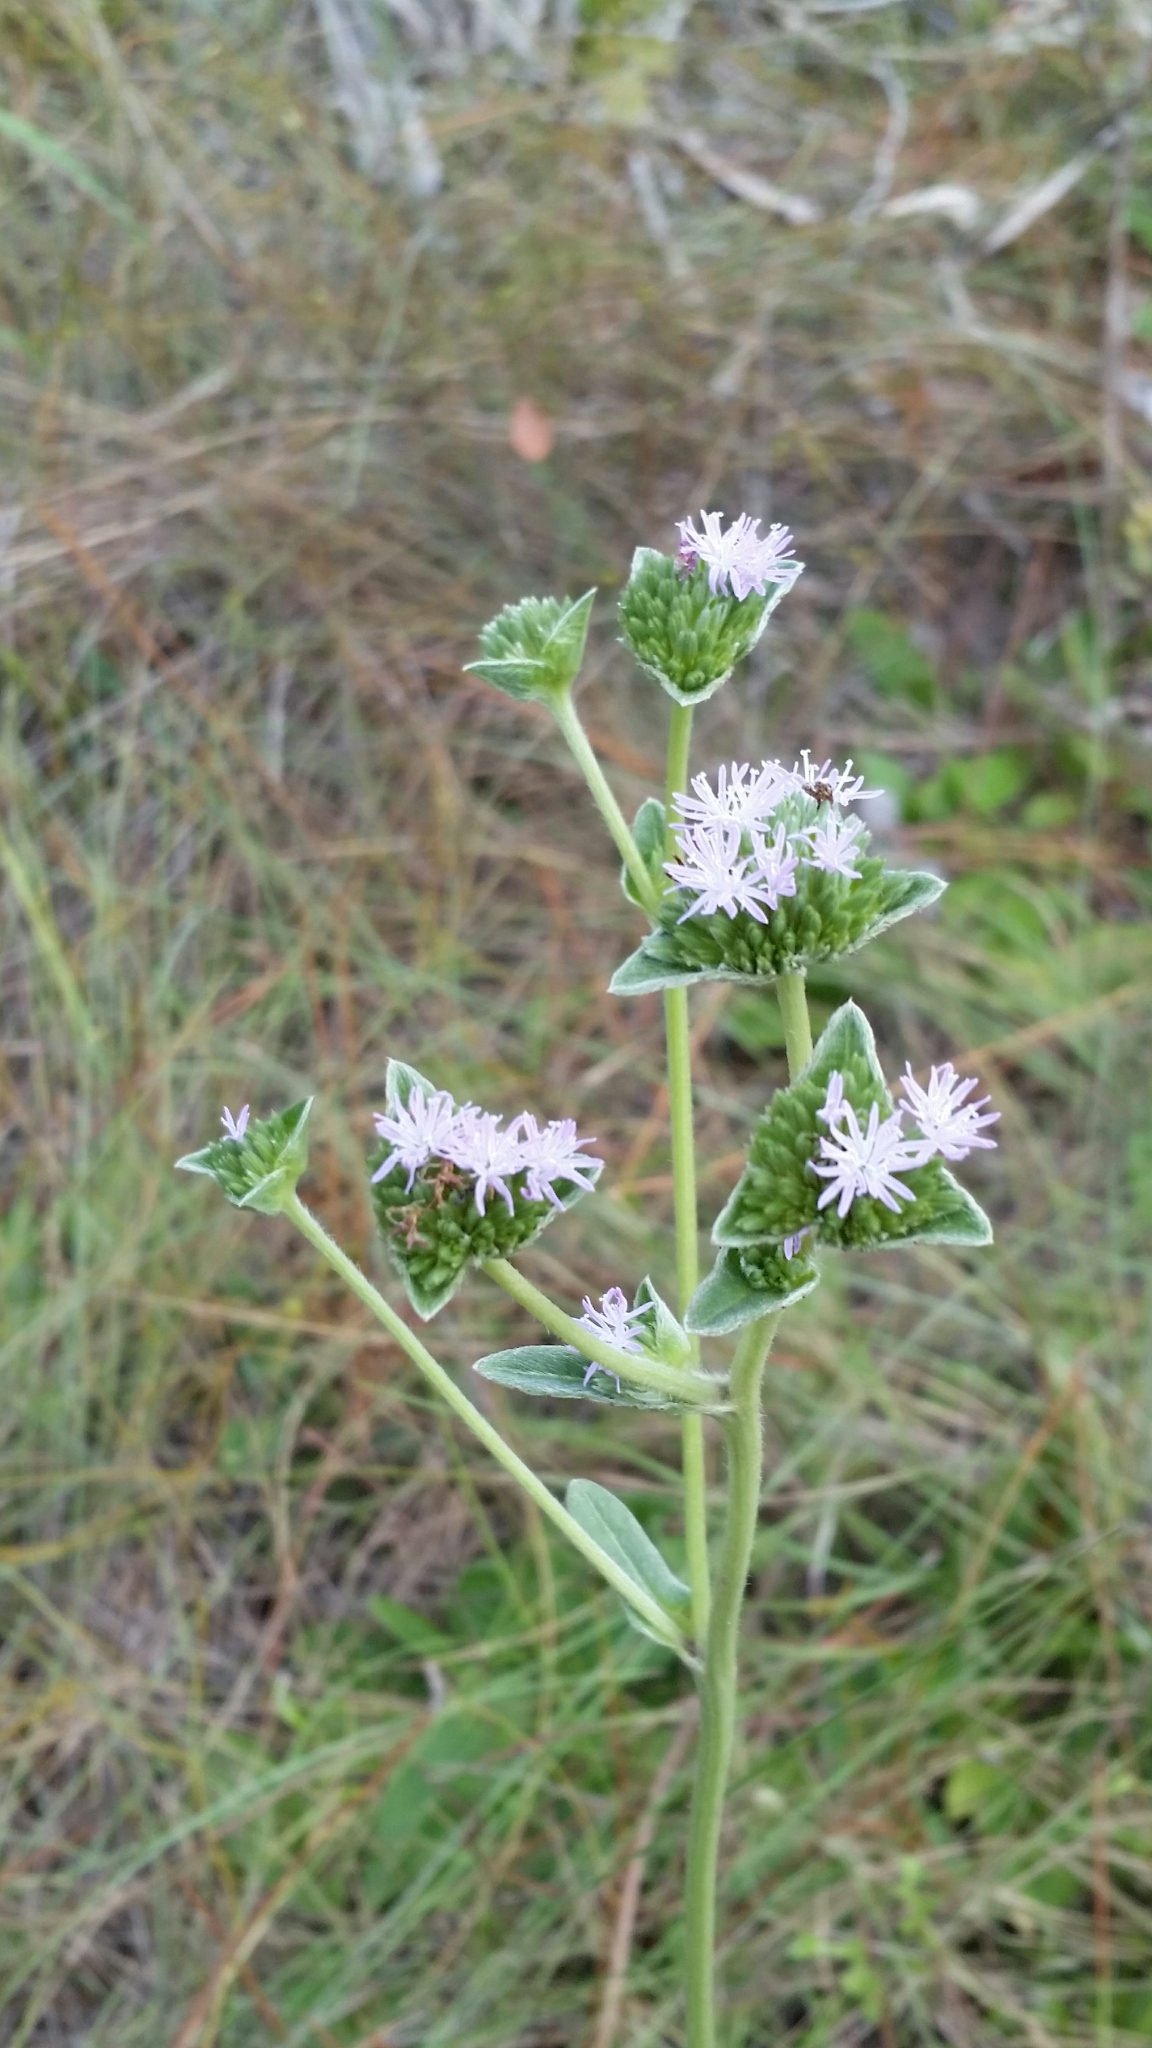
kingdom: Plantae
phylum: Tracheophyta
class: Magnoliopsida
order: Asterales
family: Asteraceae
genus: Elephantopus
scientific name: Elephantopus elatus
